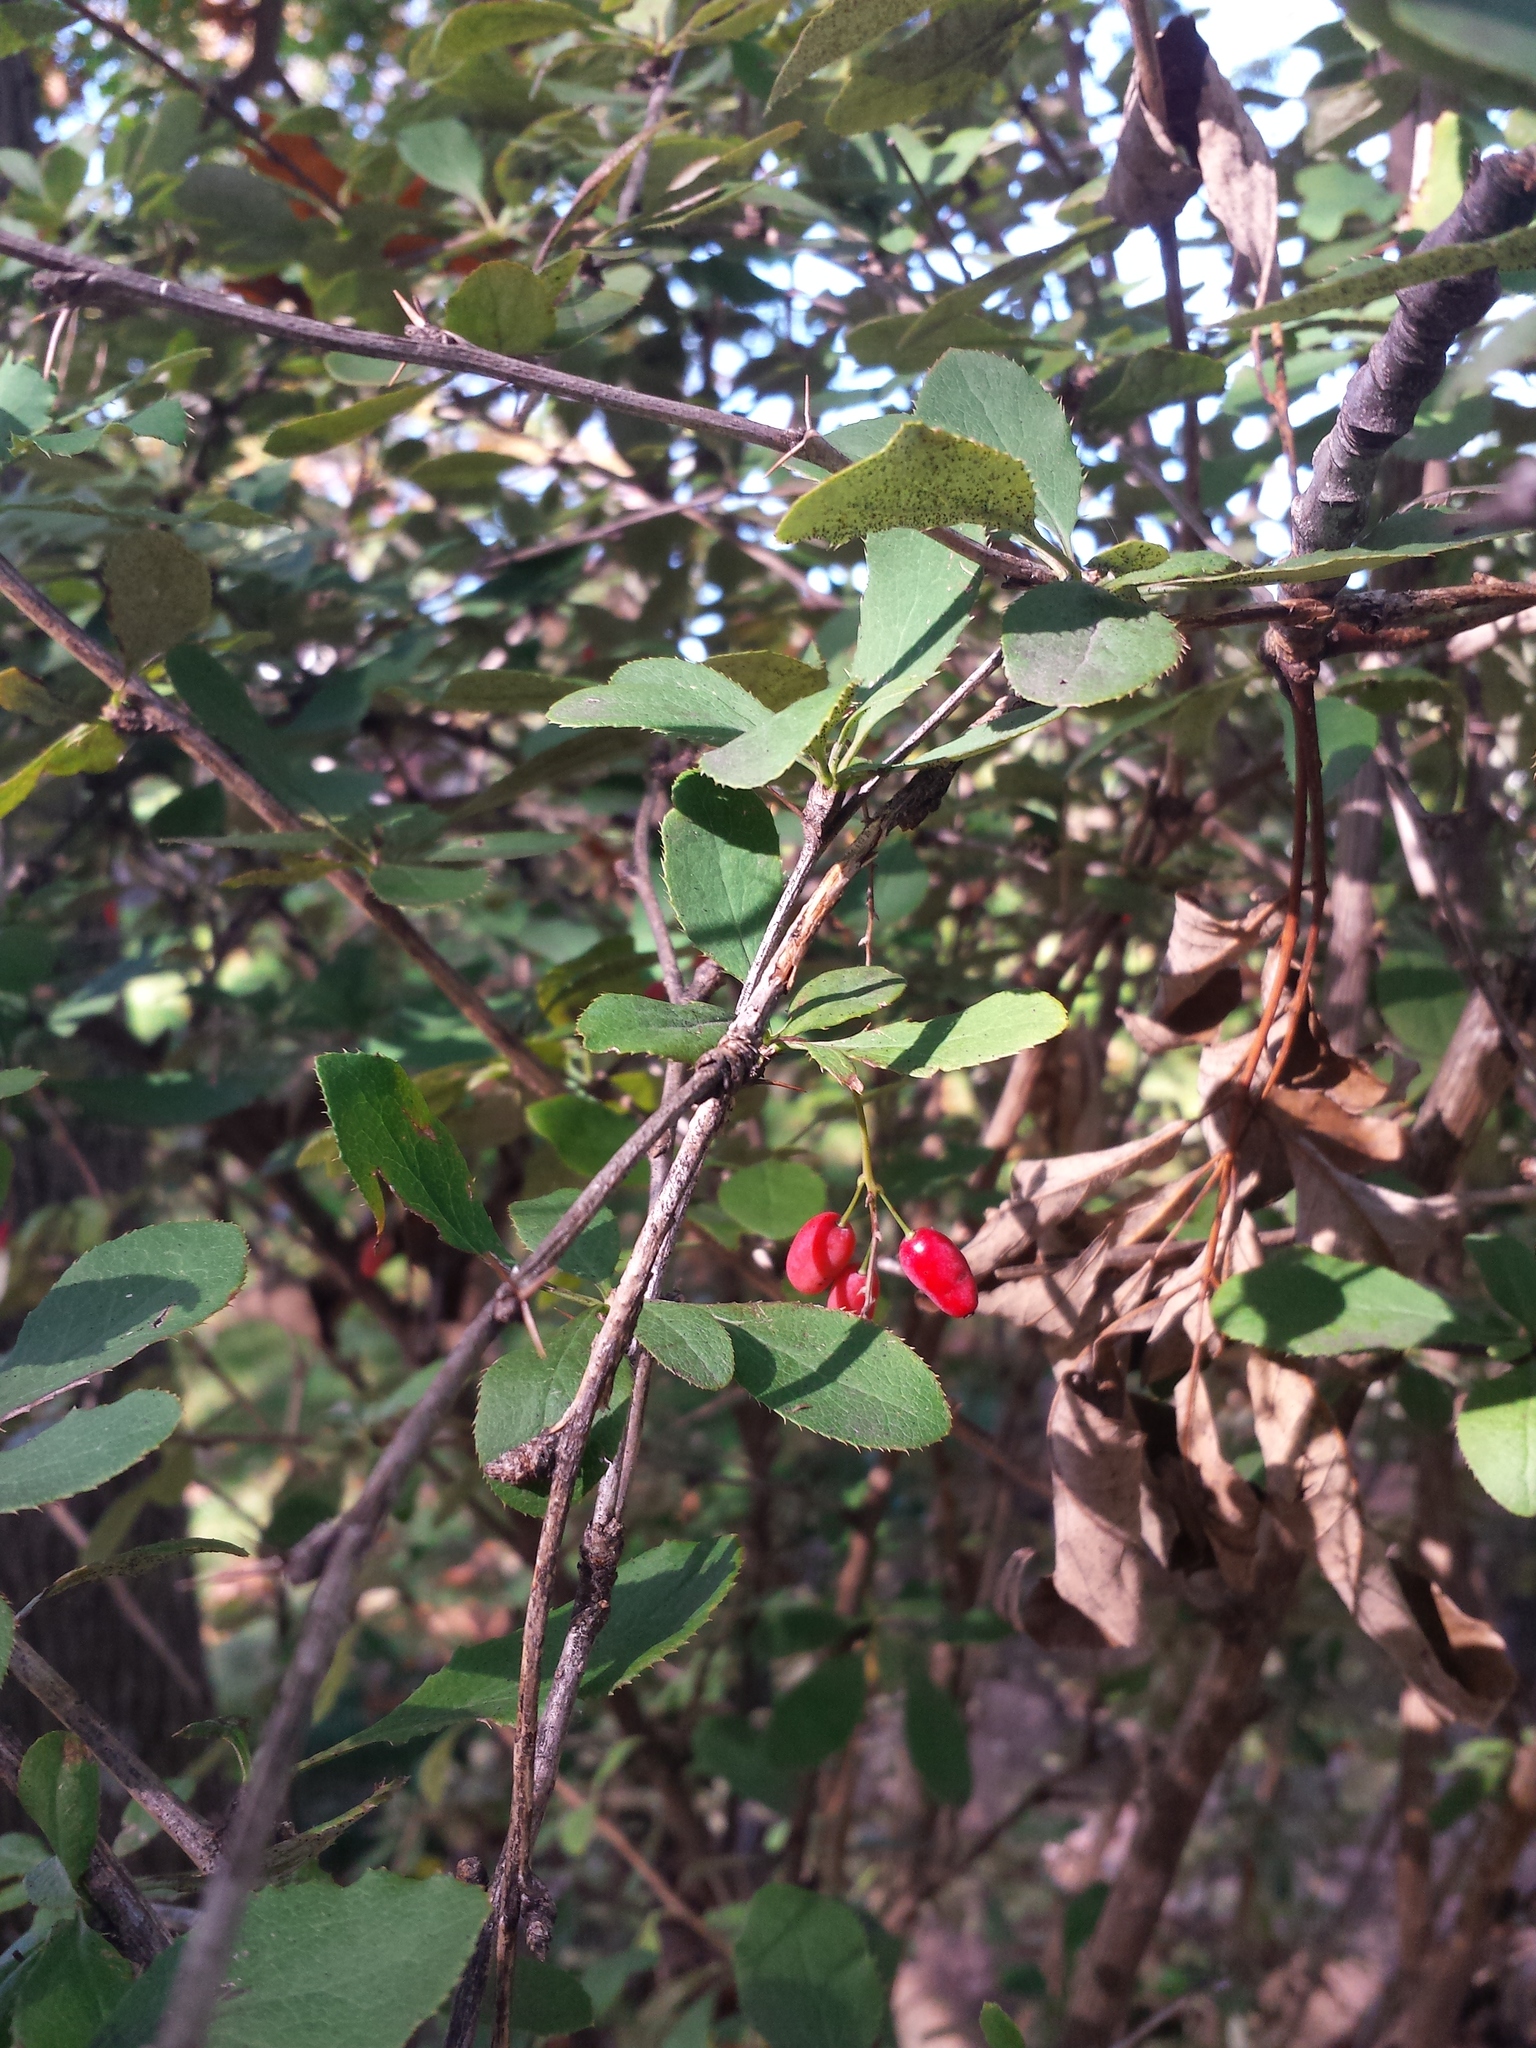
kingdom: Plantae
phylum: Tracheophyta
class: Magnoliopsida
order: Ranunculales
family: Berberidaceae
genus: Berberis
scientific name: Berberis vulgaris
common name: Barberry
